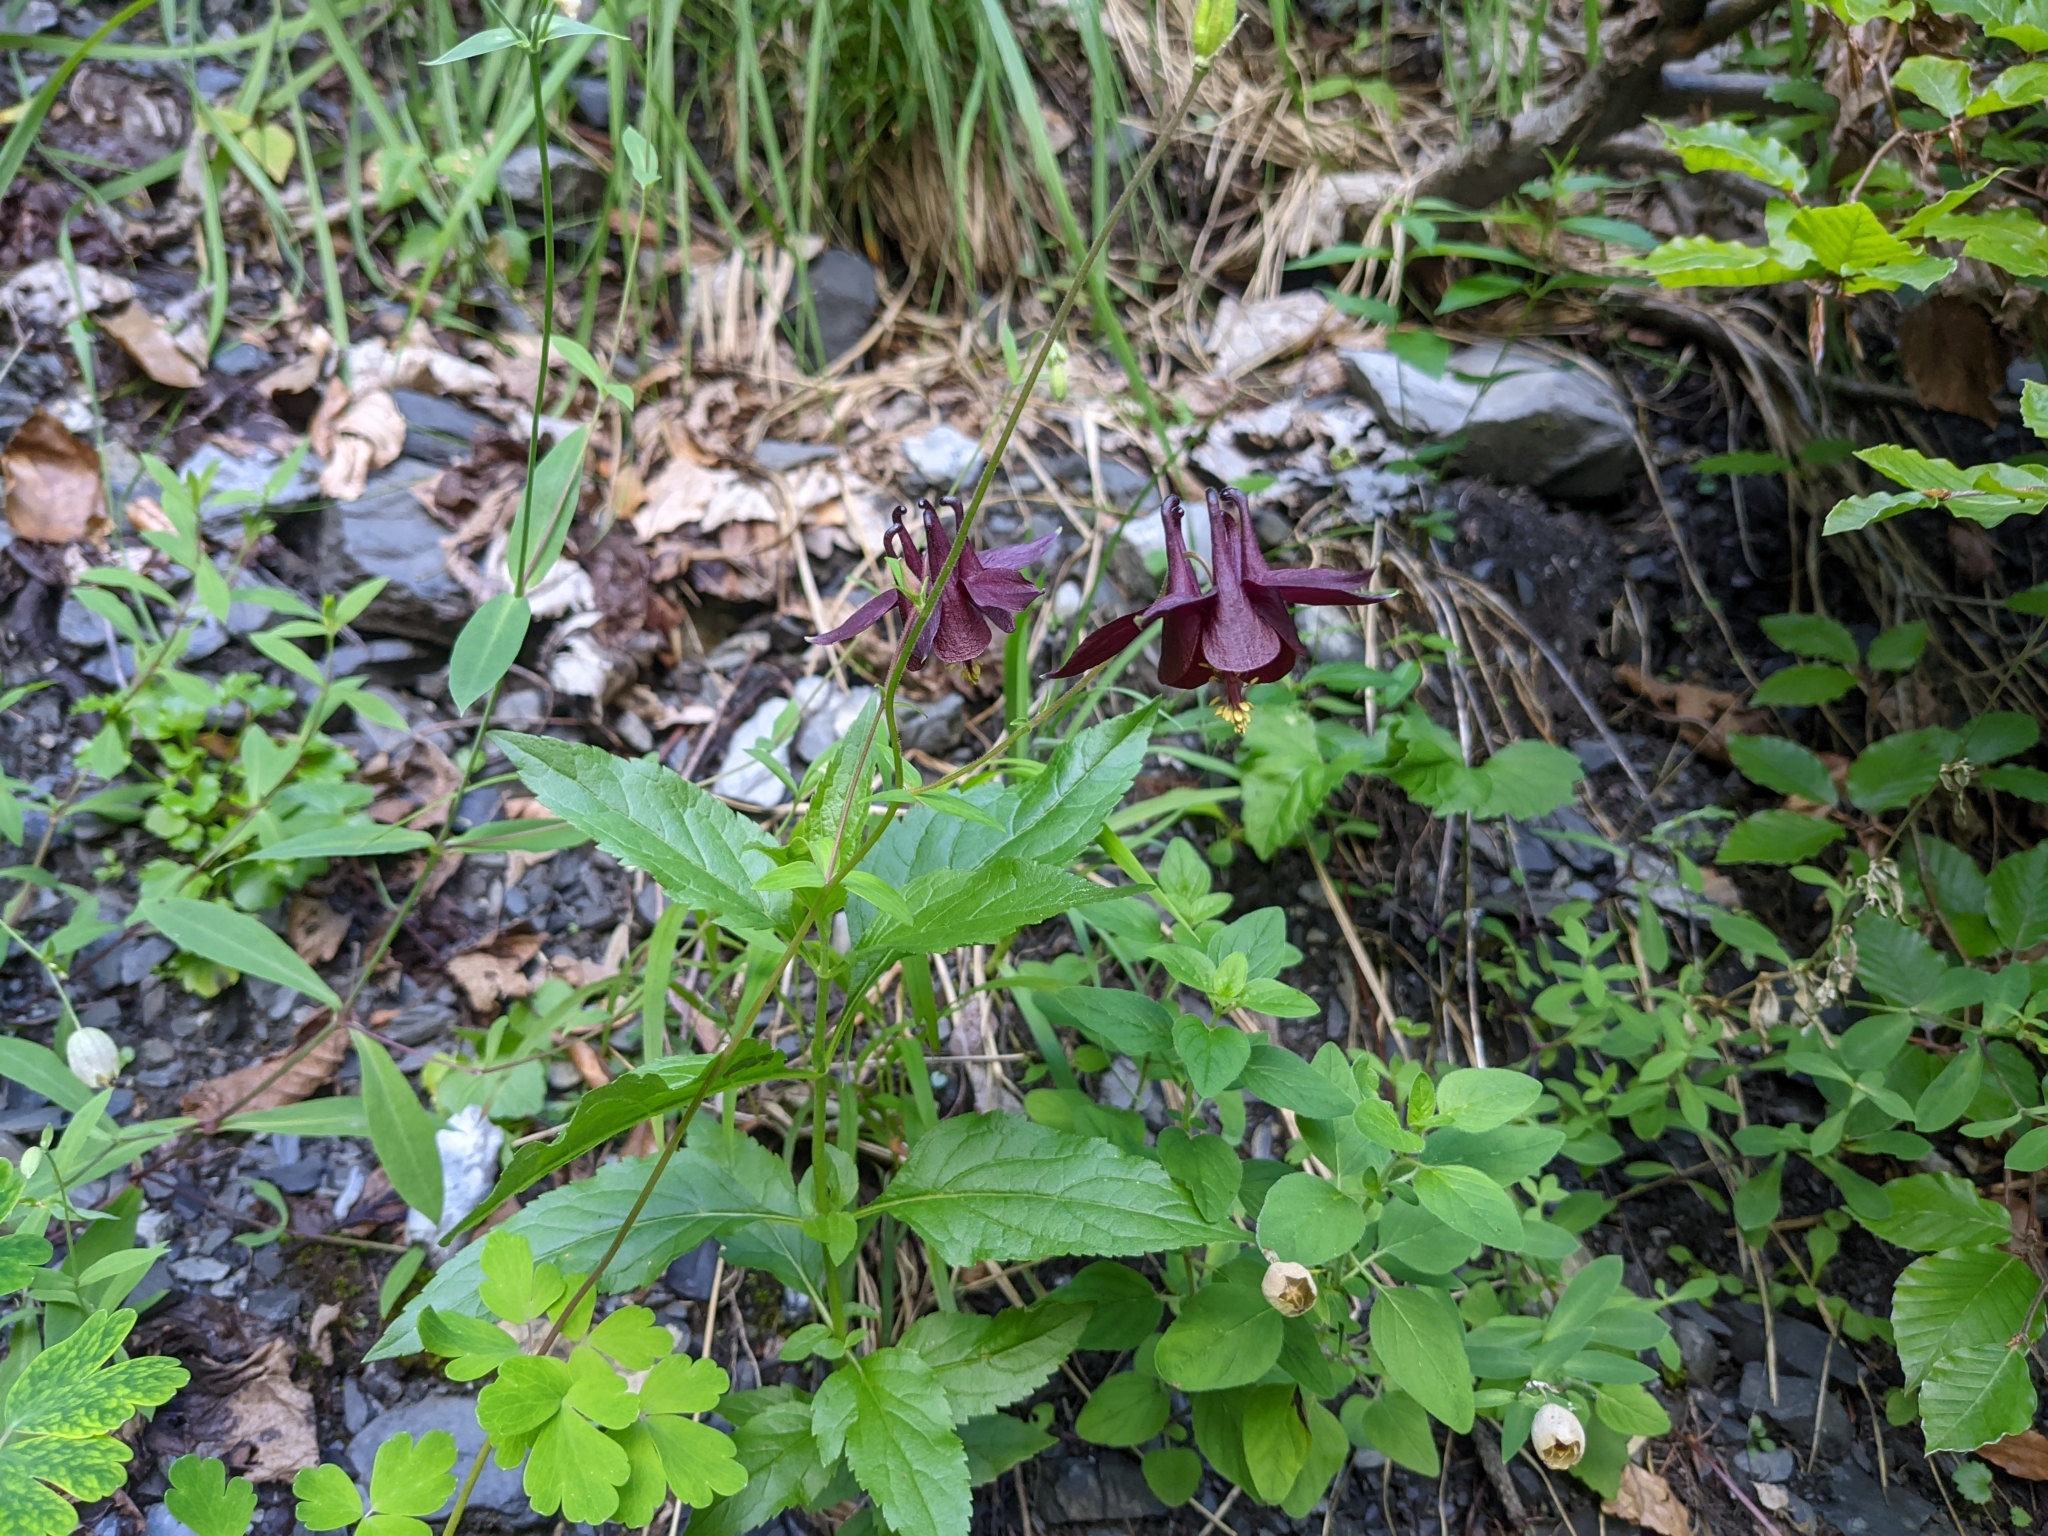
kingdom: Plantae
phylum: Tracheophyta
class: Magnoliopsida
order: Ranunculales
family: Ranunculaceae
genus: Aquilegia
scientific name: Aquilegia atrata
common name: Dark columbine
